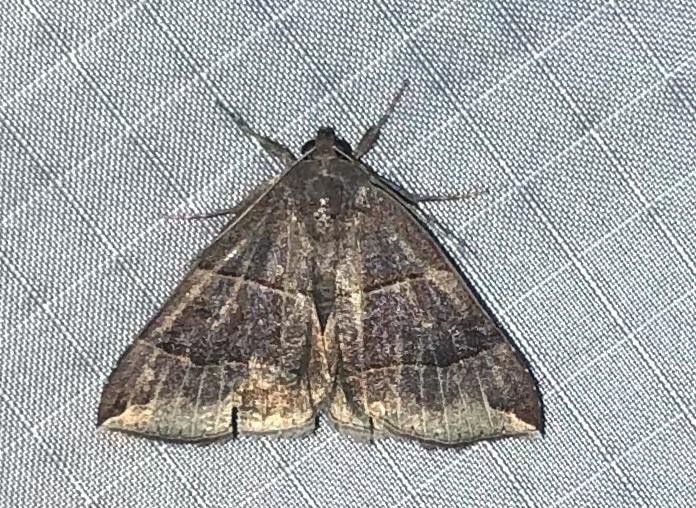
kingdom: Animalia
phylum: Arthropoda
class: Insecta
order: Lepidoptera
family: Erebidae
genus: Parallelia
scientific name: Parallelia bistriaris
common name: Maple looper moth
